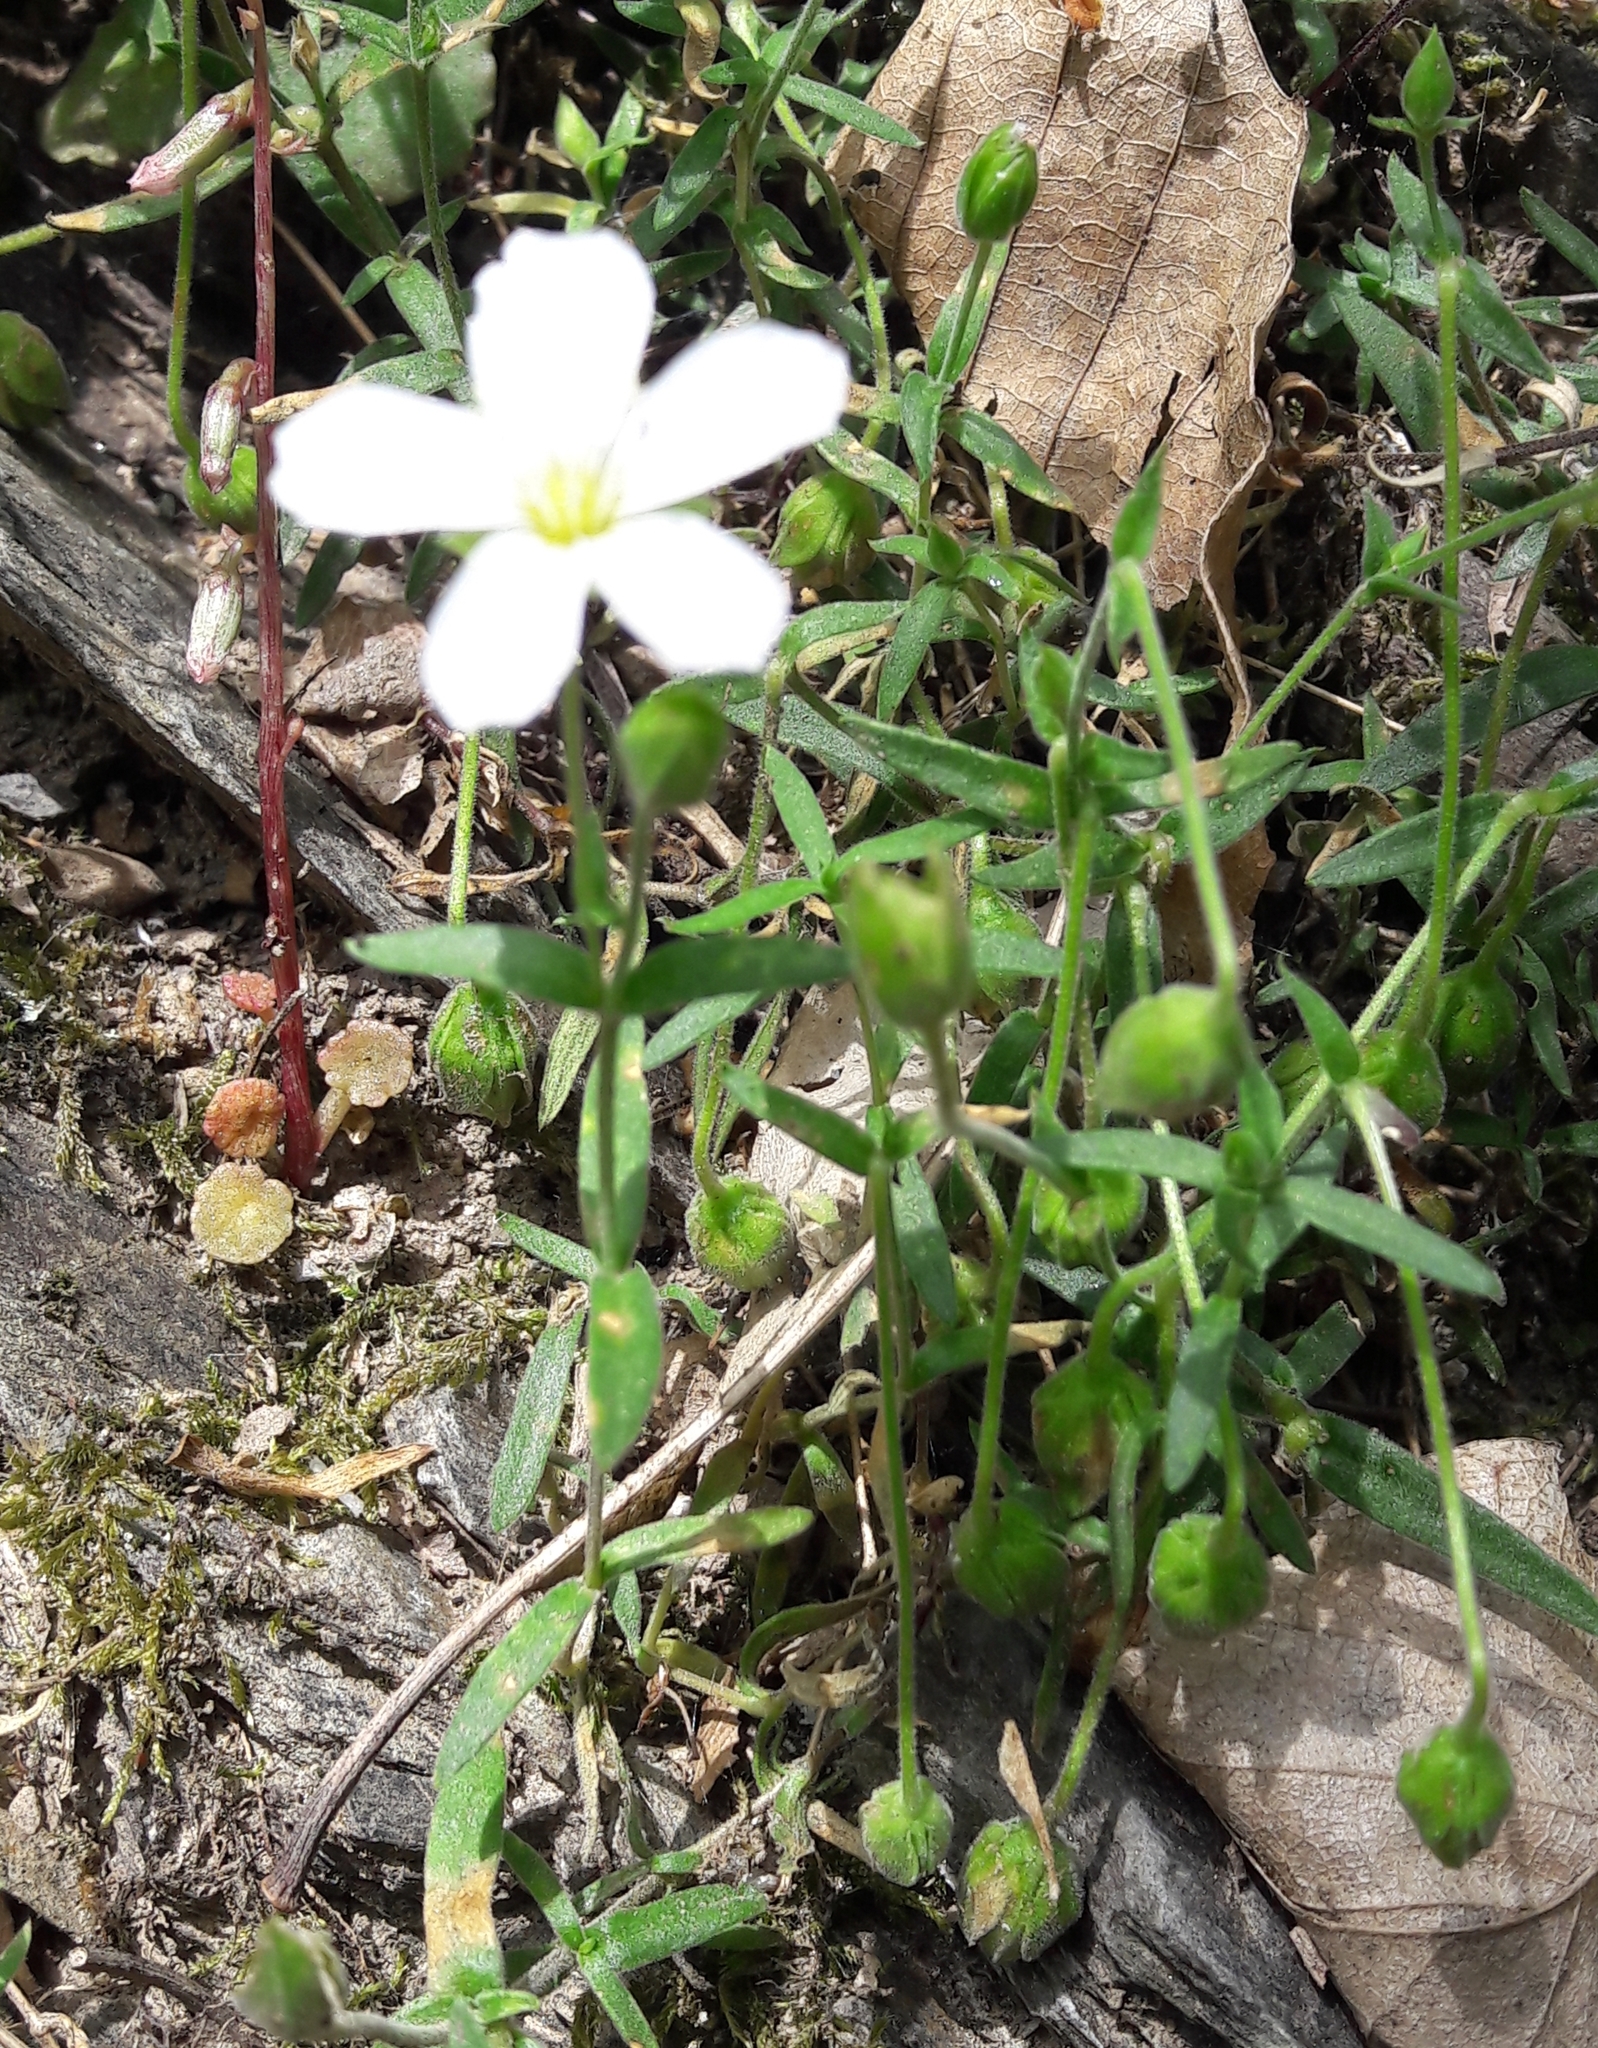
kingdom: Plantae
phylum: Tracheophyta
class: Magnoliopsida
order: Caryophyllales
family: Caryophyllaceae
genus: Arenaria
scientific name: Arenaria montana
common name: Mountain sandwort
